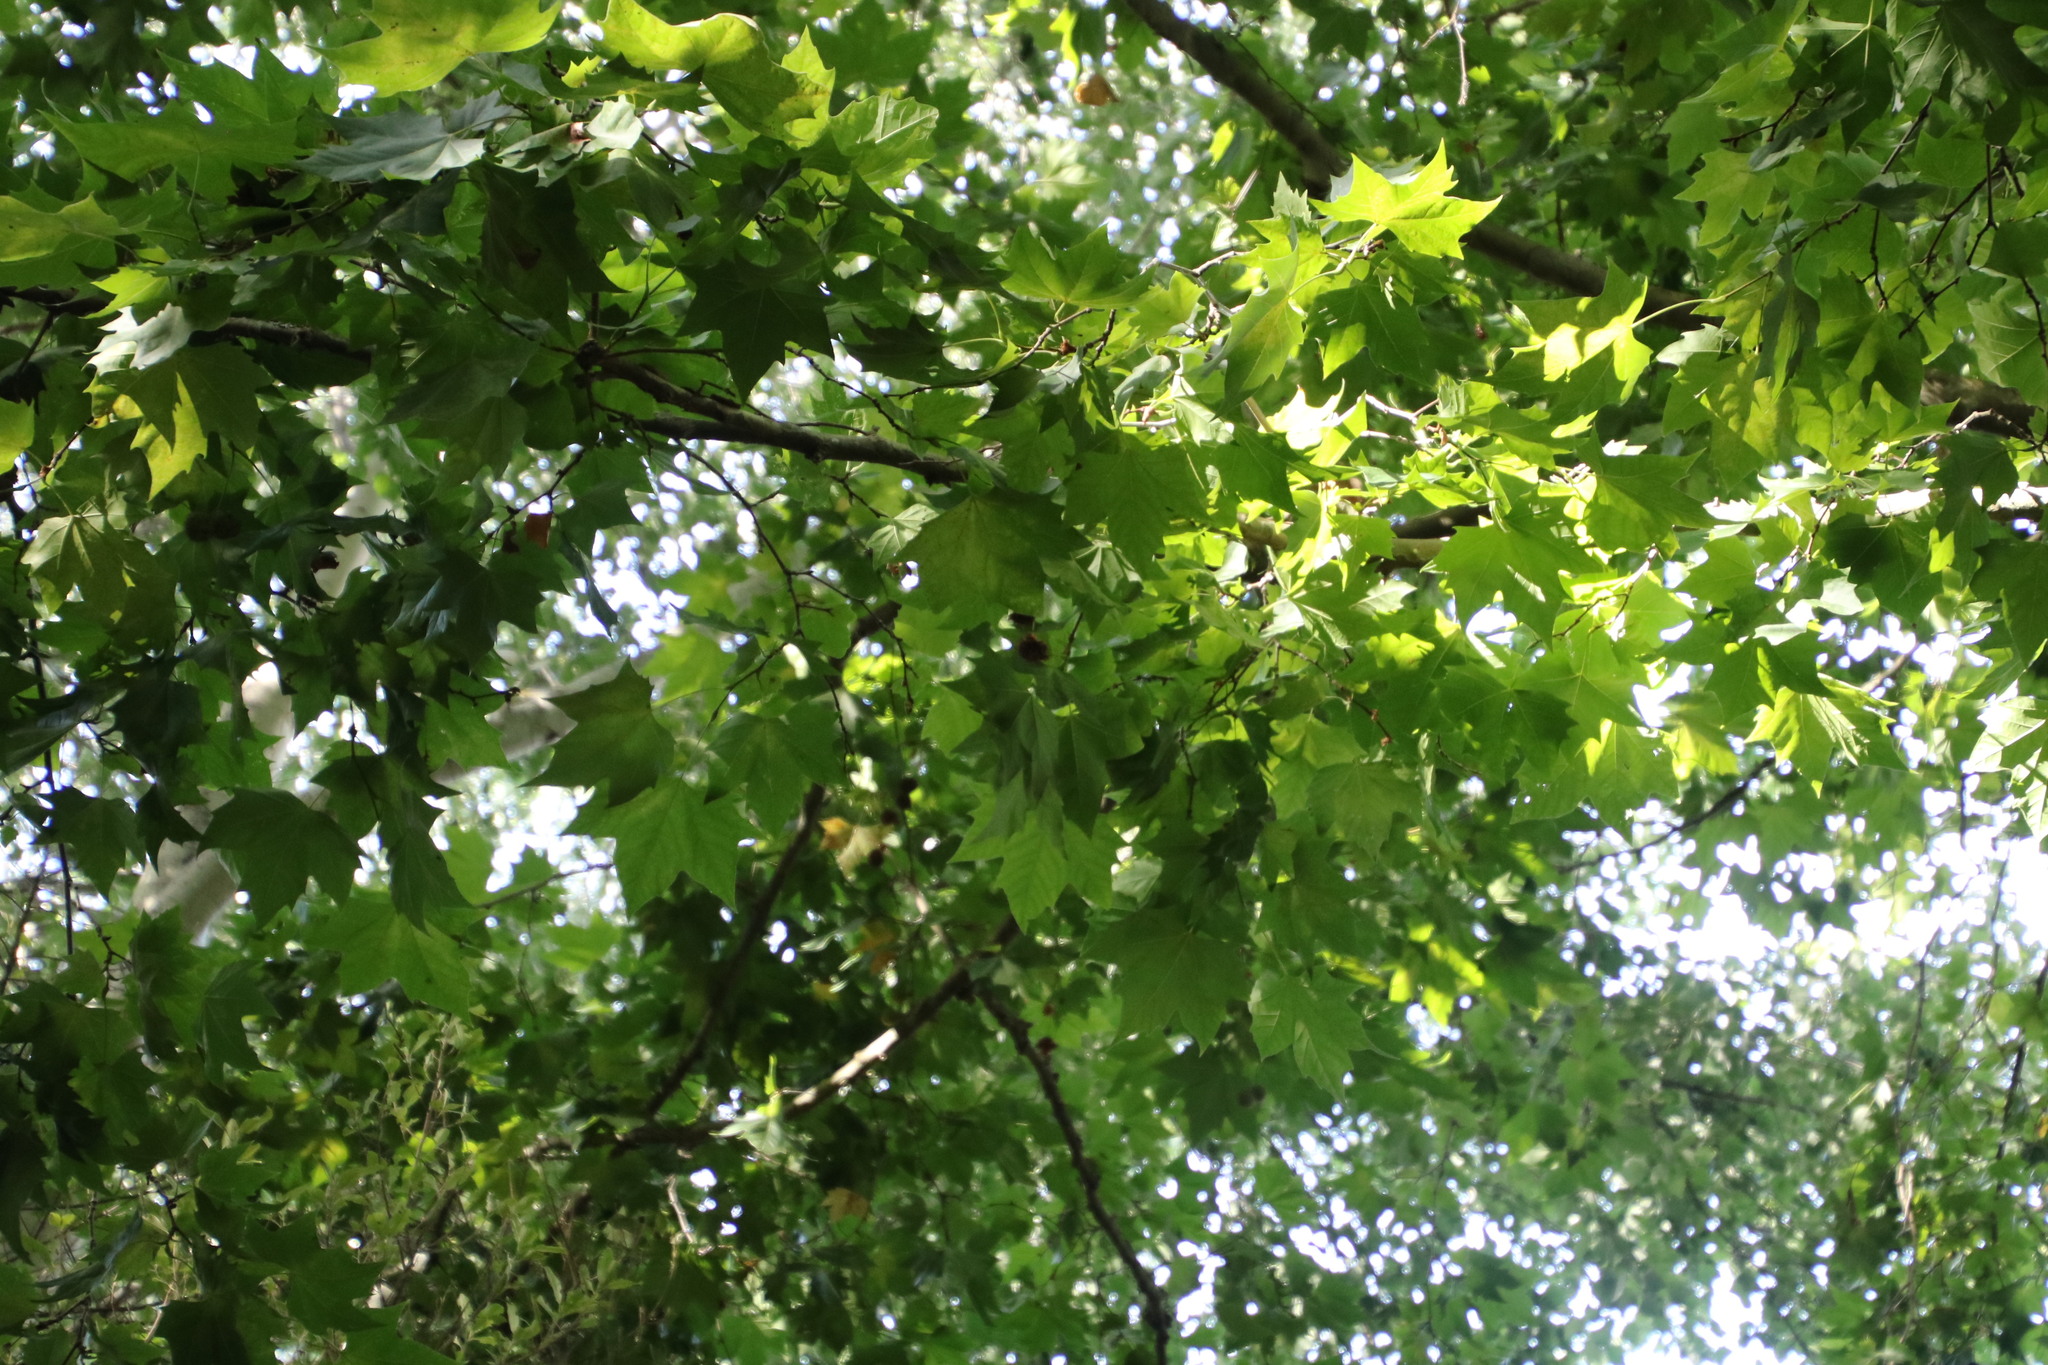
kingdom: Plantae
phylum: Tracheophyta
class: Magnoliopsida
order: Proteales
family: Platanaceae
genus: Platanus
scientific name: Platanus hispanica
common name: London plane
